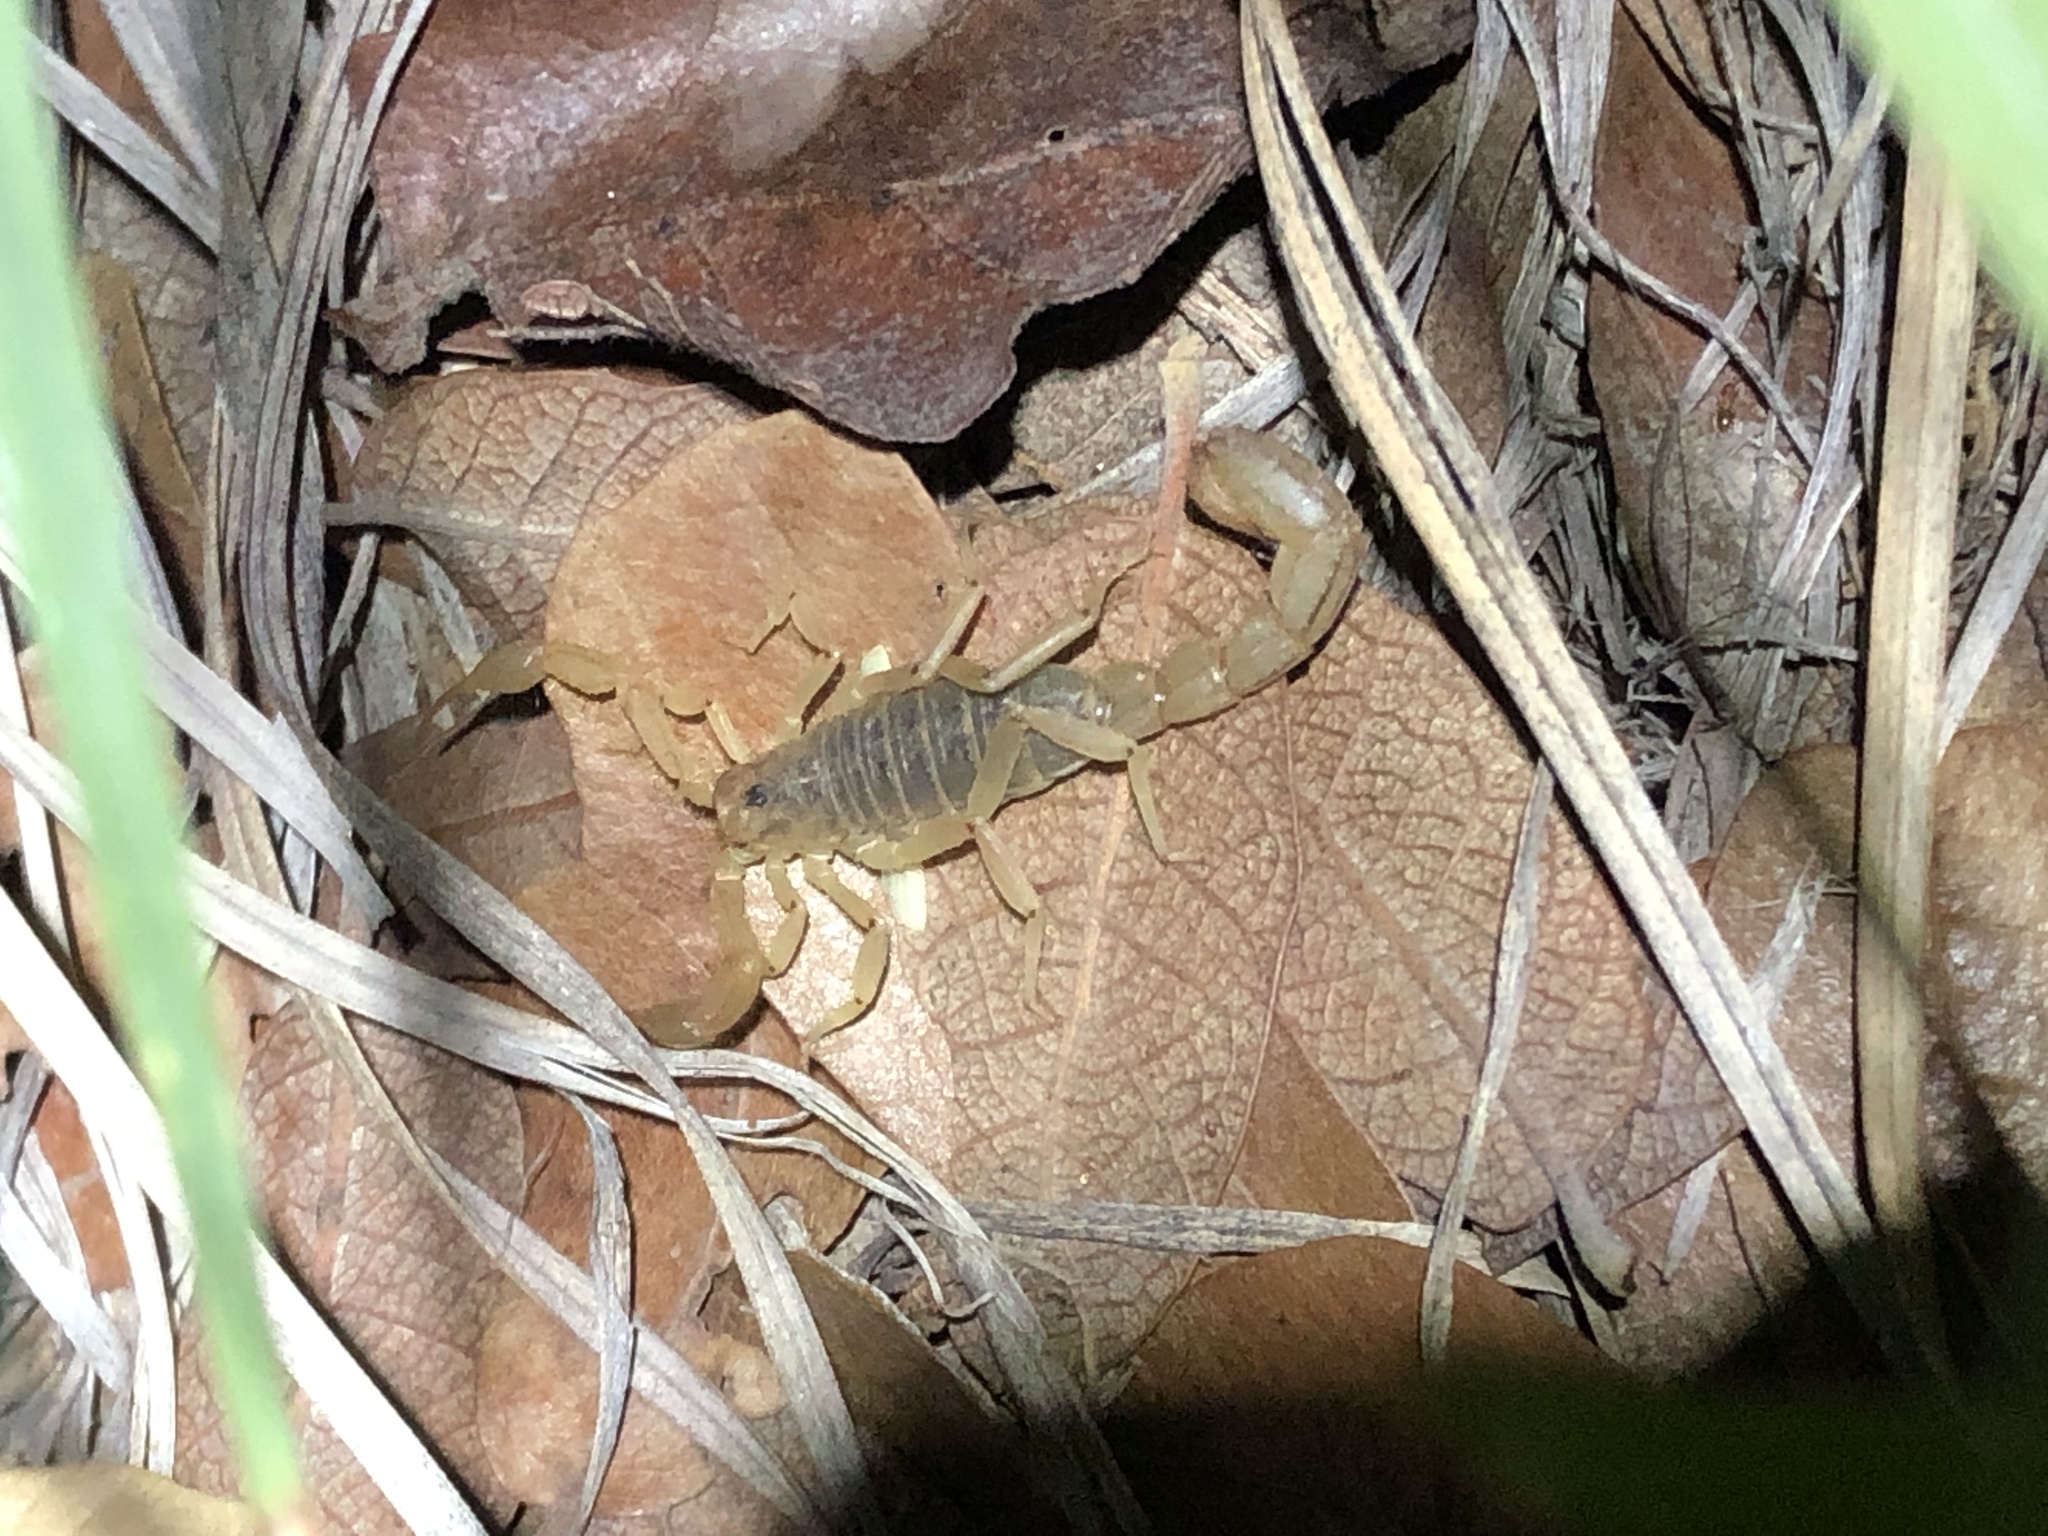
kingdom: Animalia
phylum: Arthropoda
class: Arachnida
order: Scorpiones
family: Vaejovidae
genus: Paravaejovis
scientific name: Paravaejovis spinigerus
